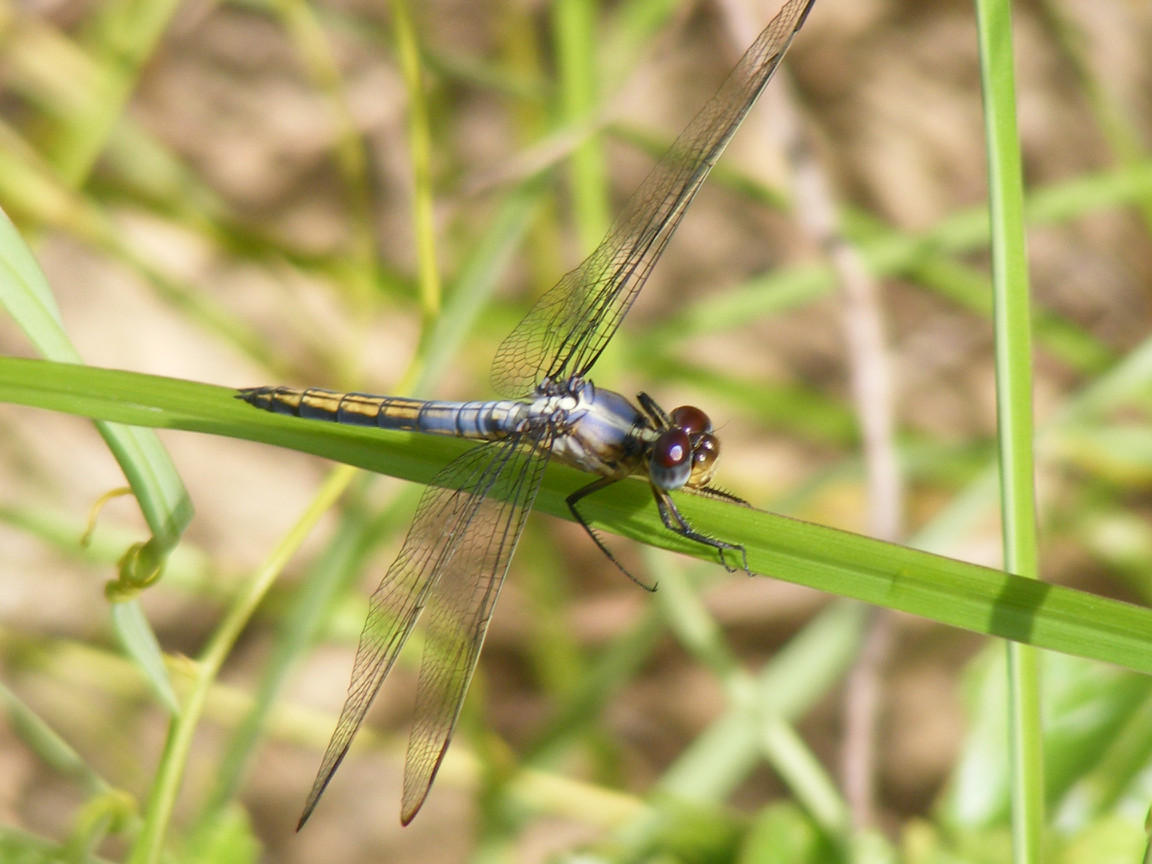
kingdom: Animalia
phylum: Arthropoda
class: Insecta
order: Odonata
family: Libellulidae
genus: Nesciothemis
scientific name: Nesciothemis farinosa
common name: Eastern blacktail
